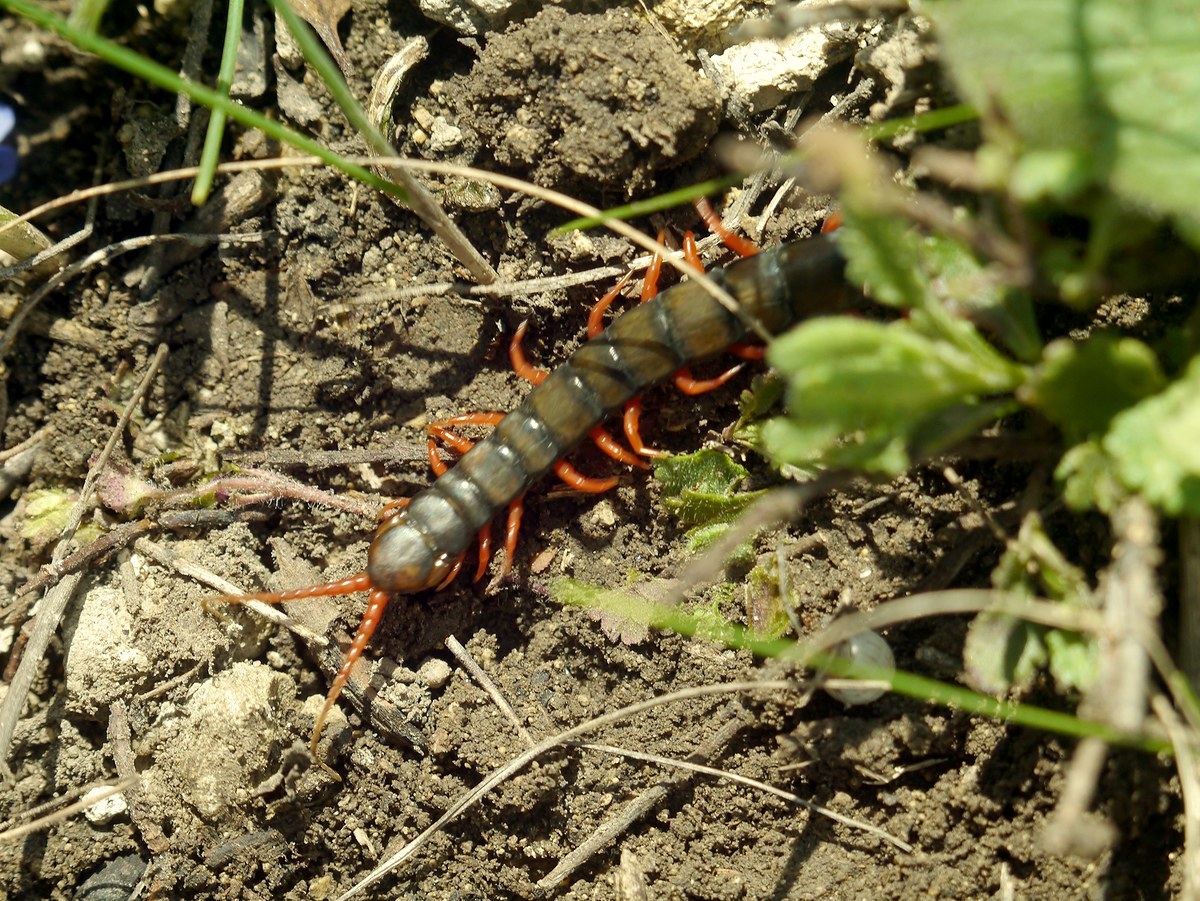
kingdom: Animalia
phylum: Arthropoda
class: Chilopoda
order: Scolopendromorpha
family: Scolopendridae
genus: Scolopendra
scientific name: Scolopendra cingulata
